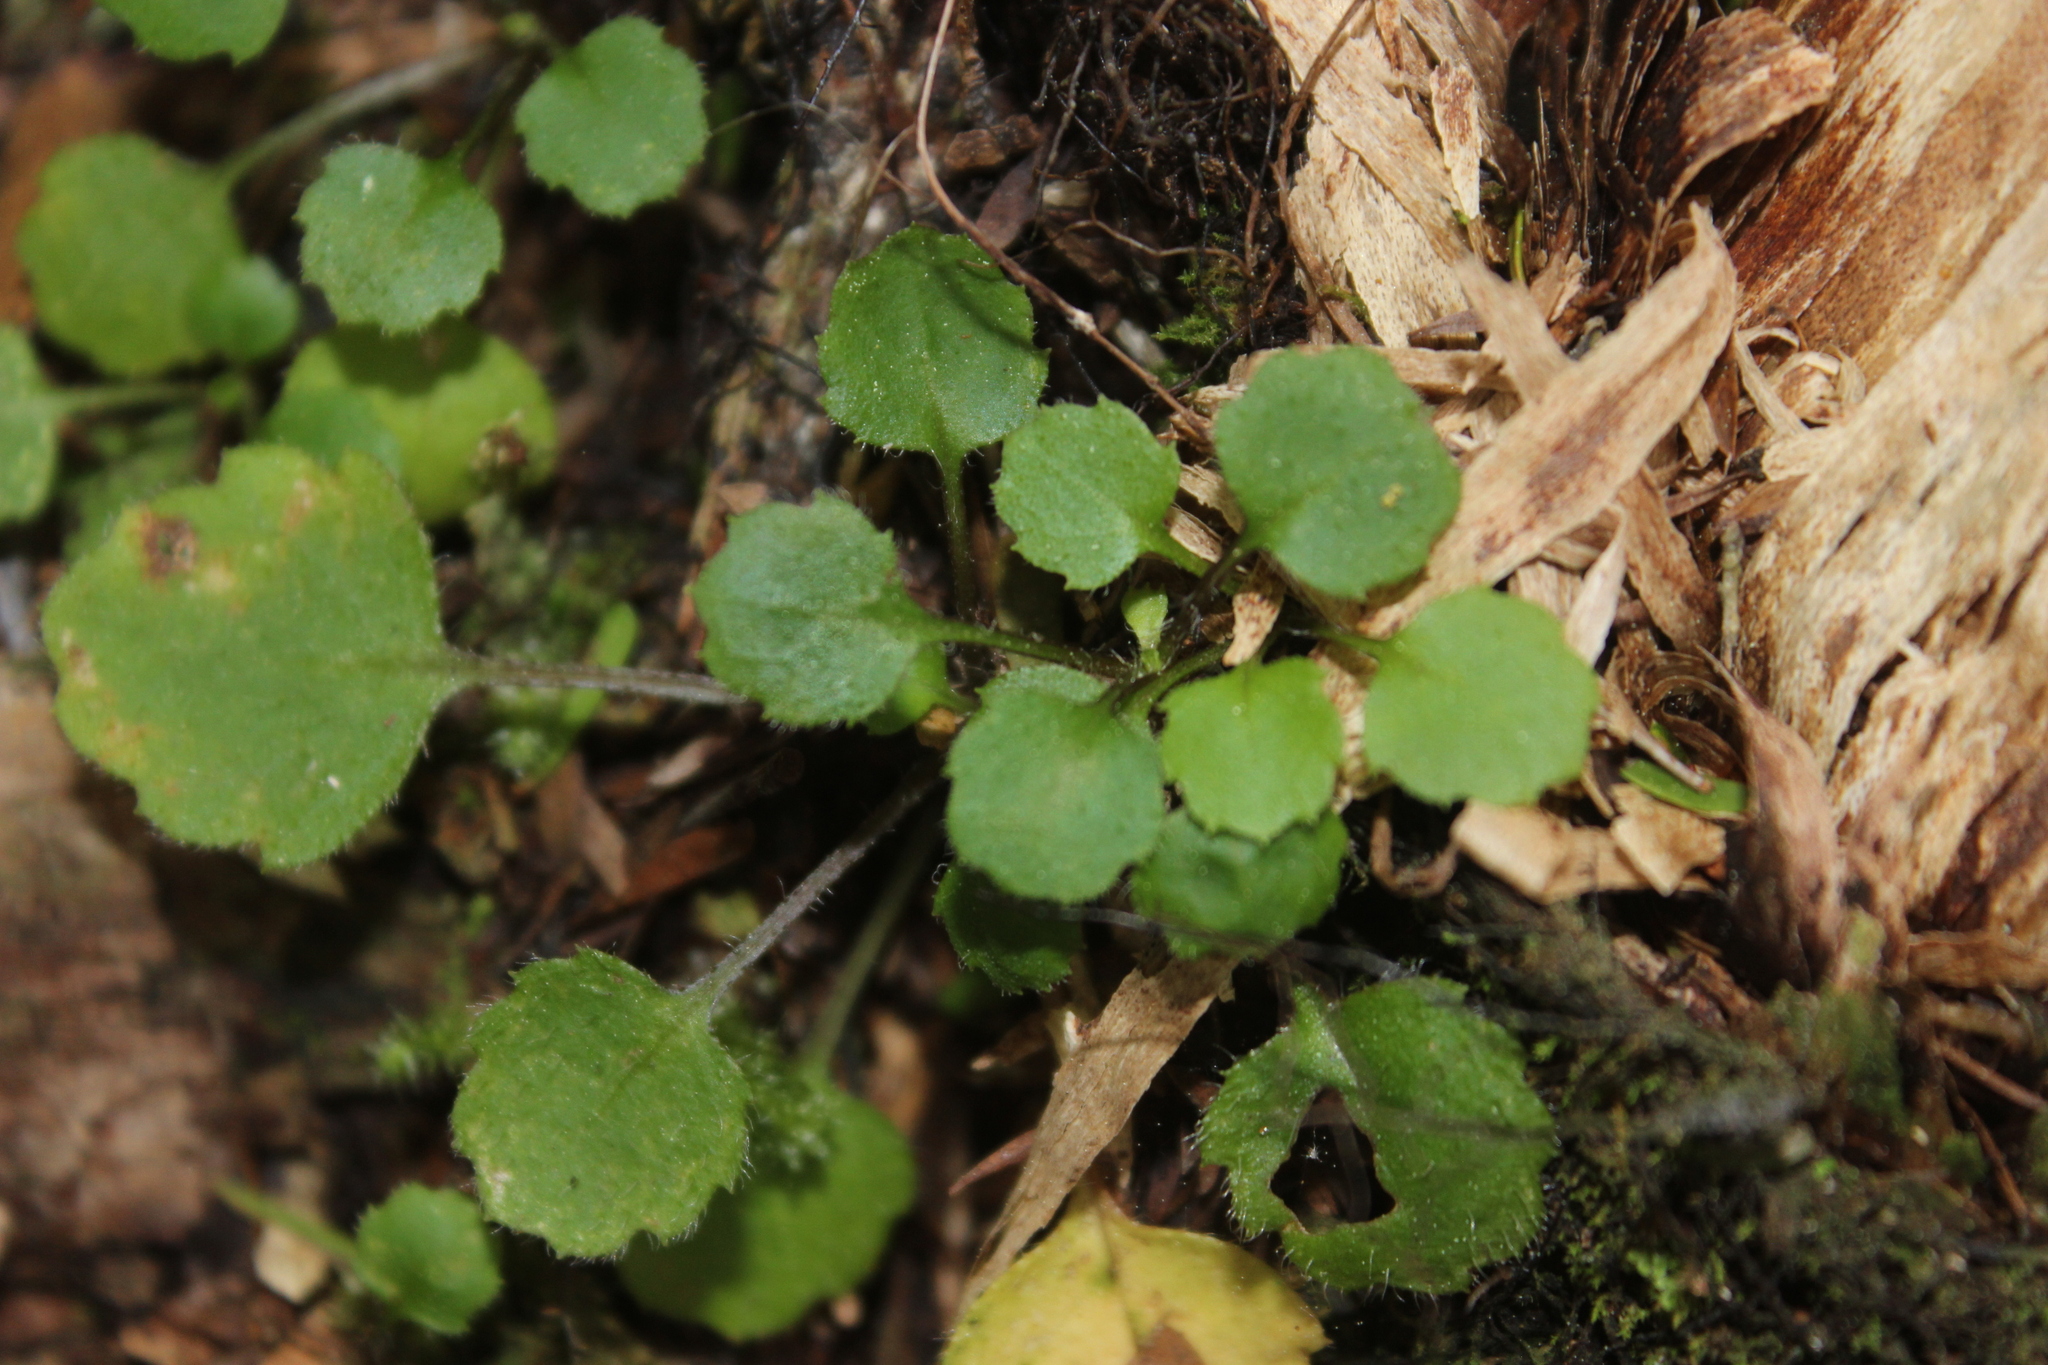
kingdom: Plantae
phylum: Tracheophyta
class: Magnoliopsida
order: Asterales
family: Asteraceae
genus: Lagenophora
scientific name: Lagenophora strangulata
